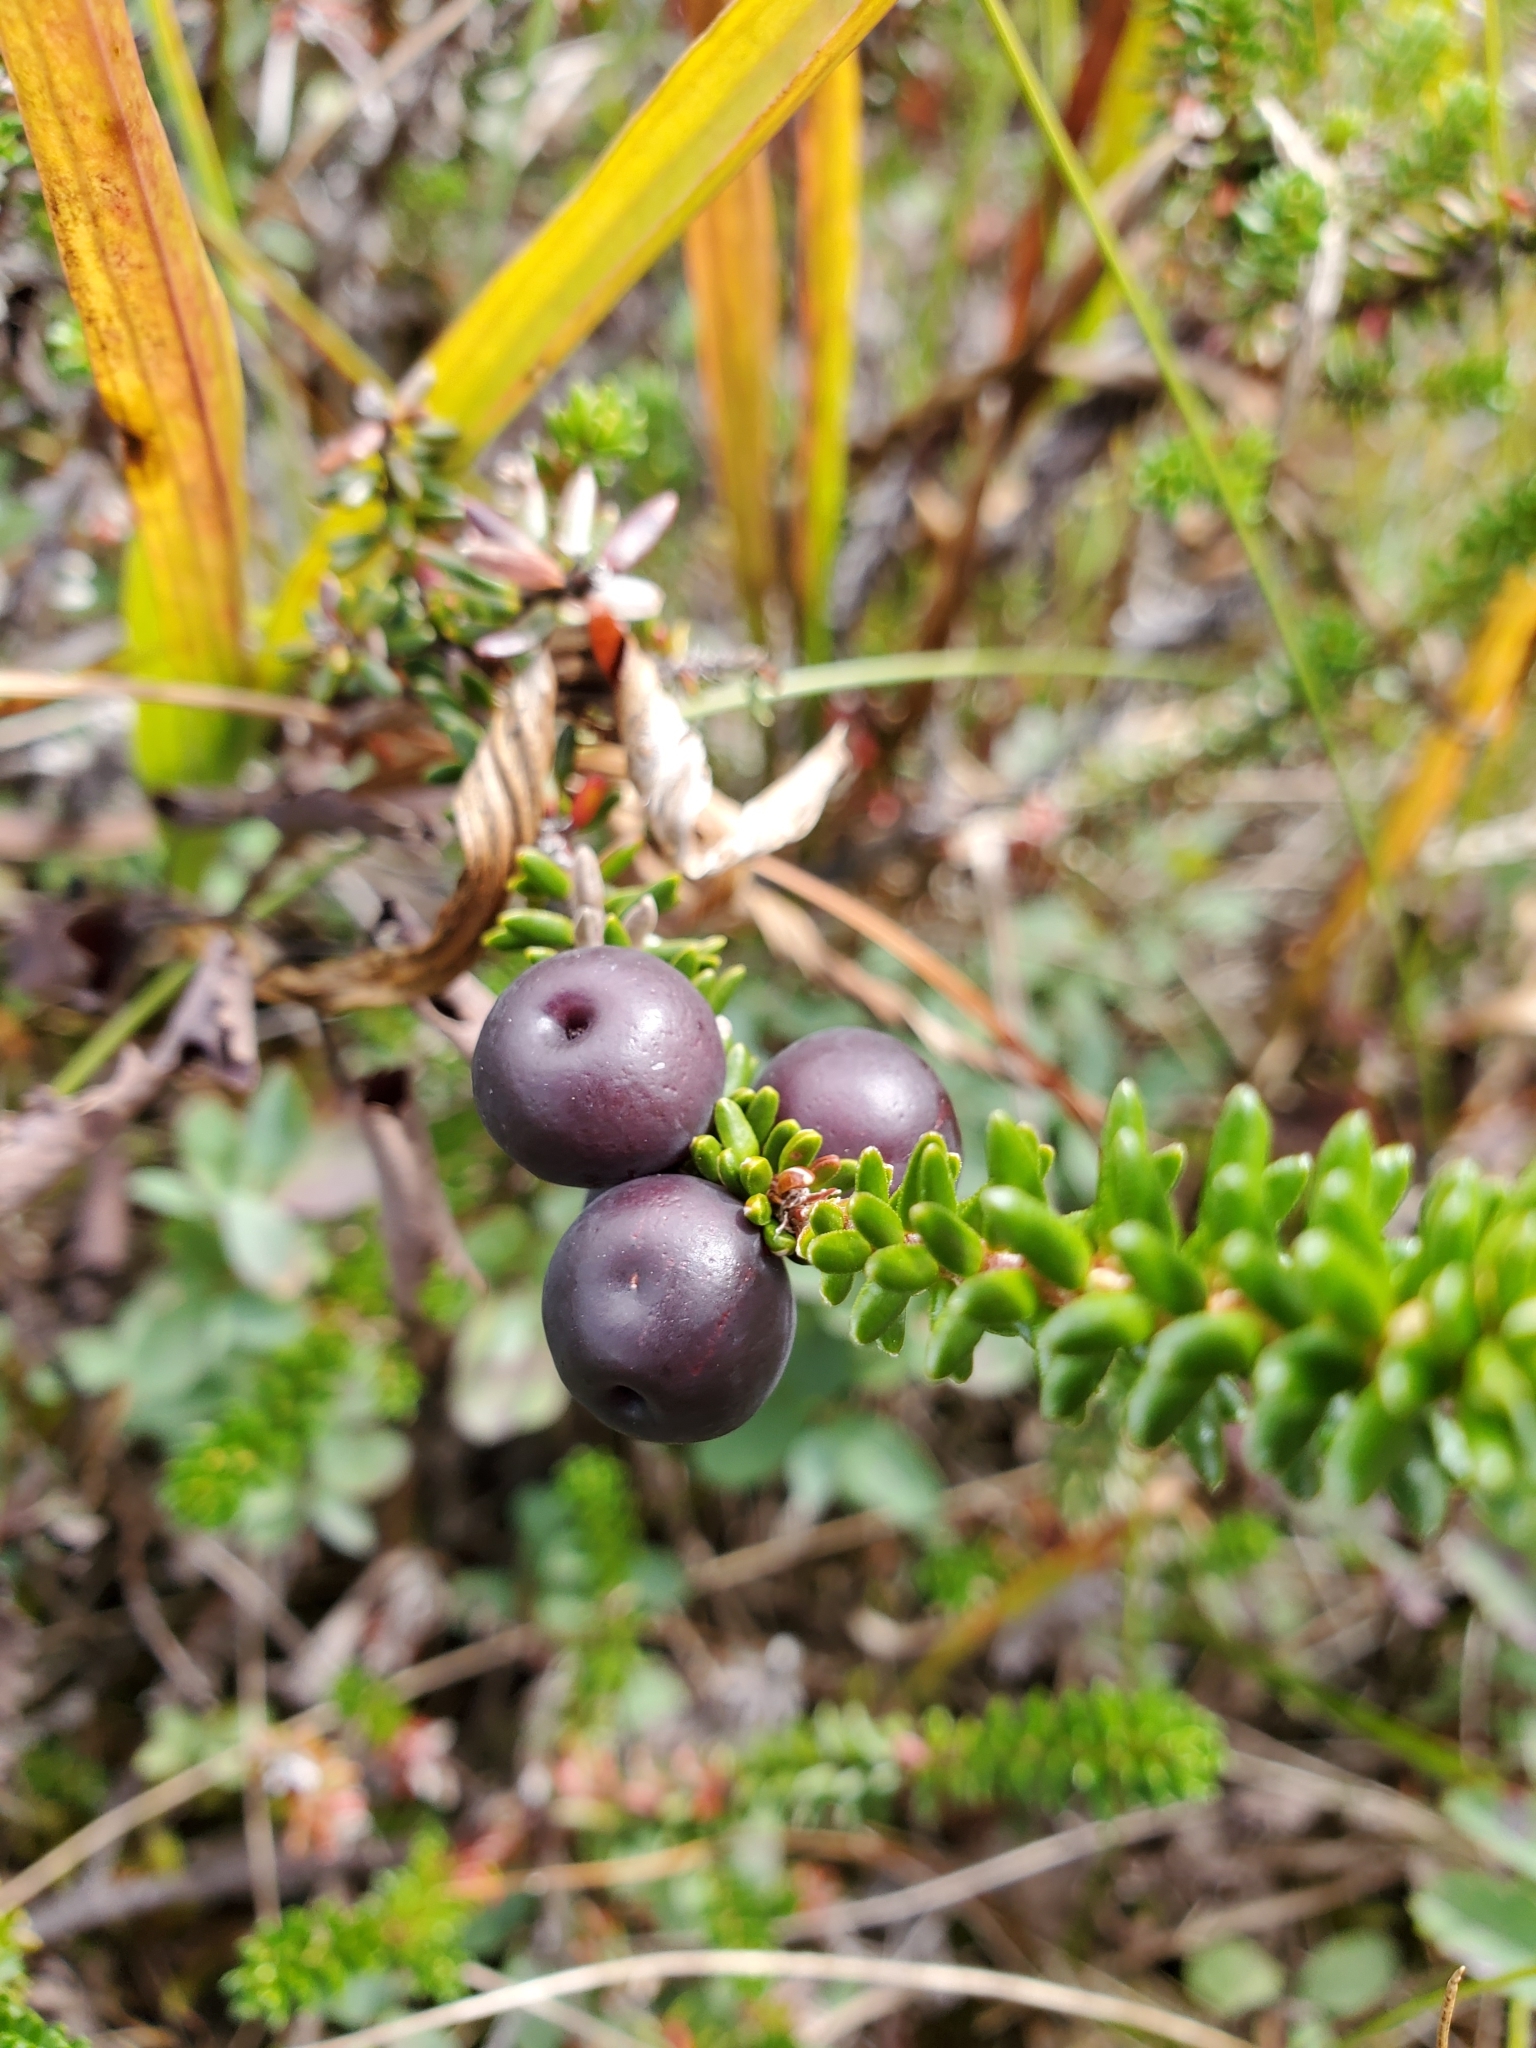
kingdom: Plantae
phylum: Tracheophyta
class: Magnoliopsida
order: Ericales
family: Ericaceae
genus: Empetrum
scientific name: Empetrum nigrum
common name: Black crowberry
